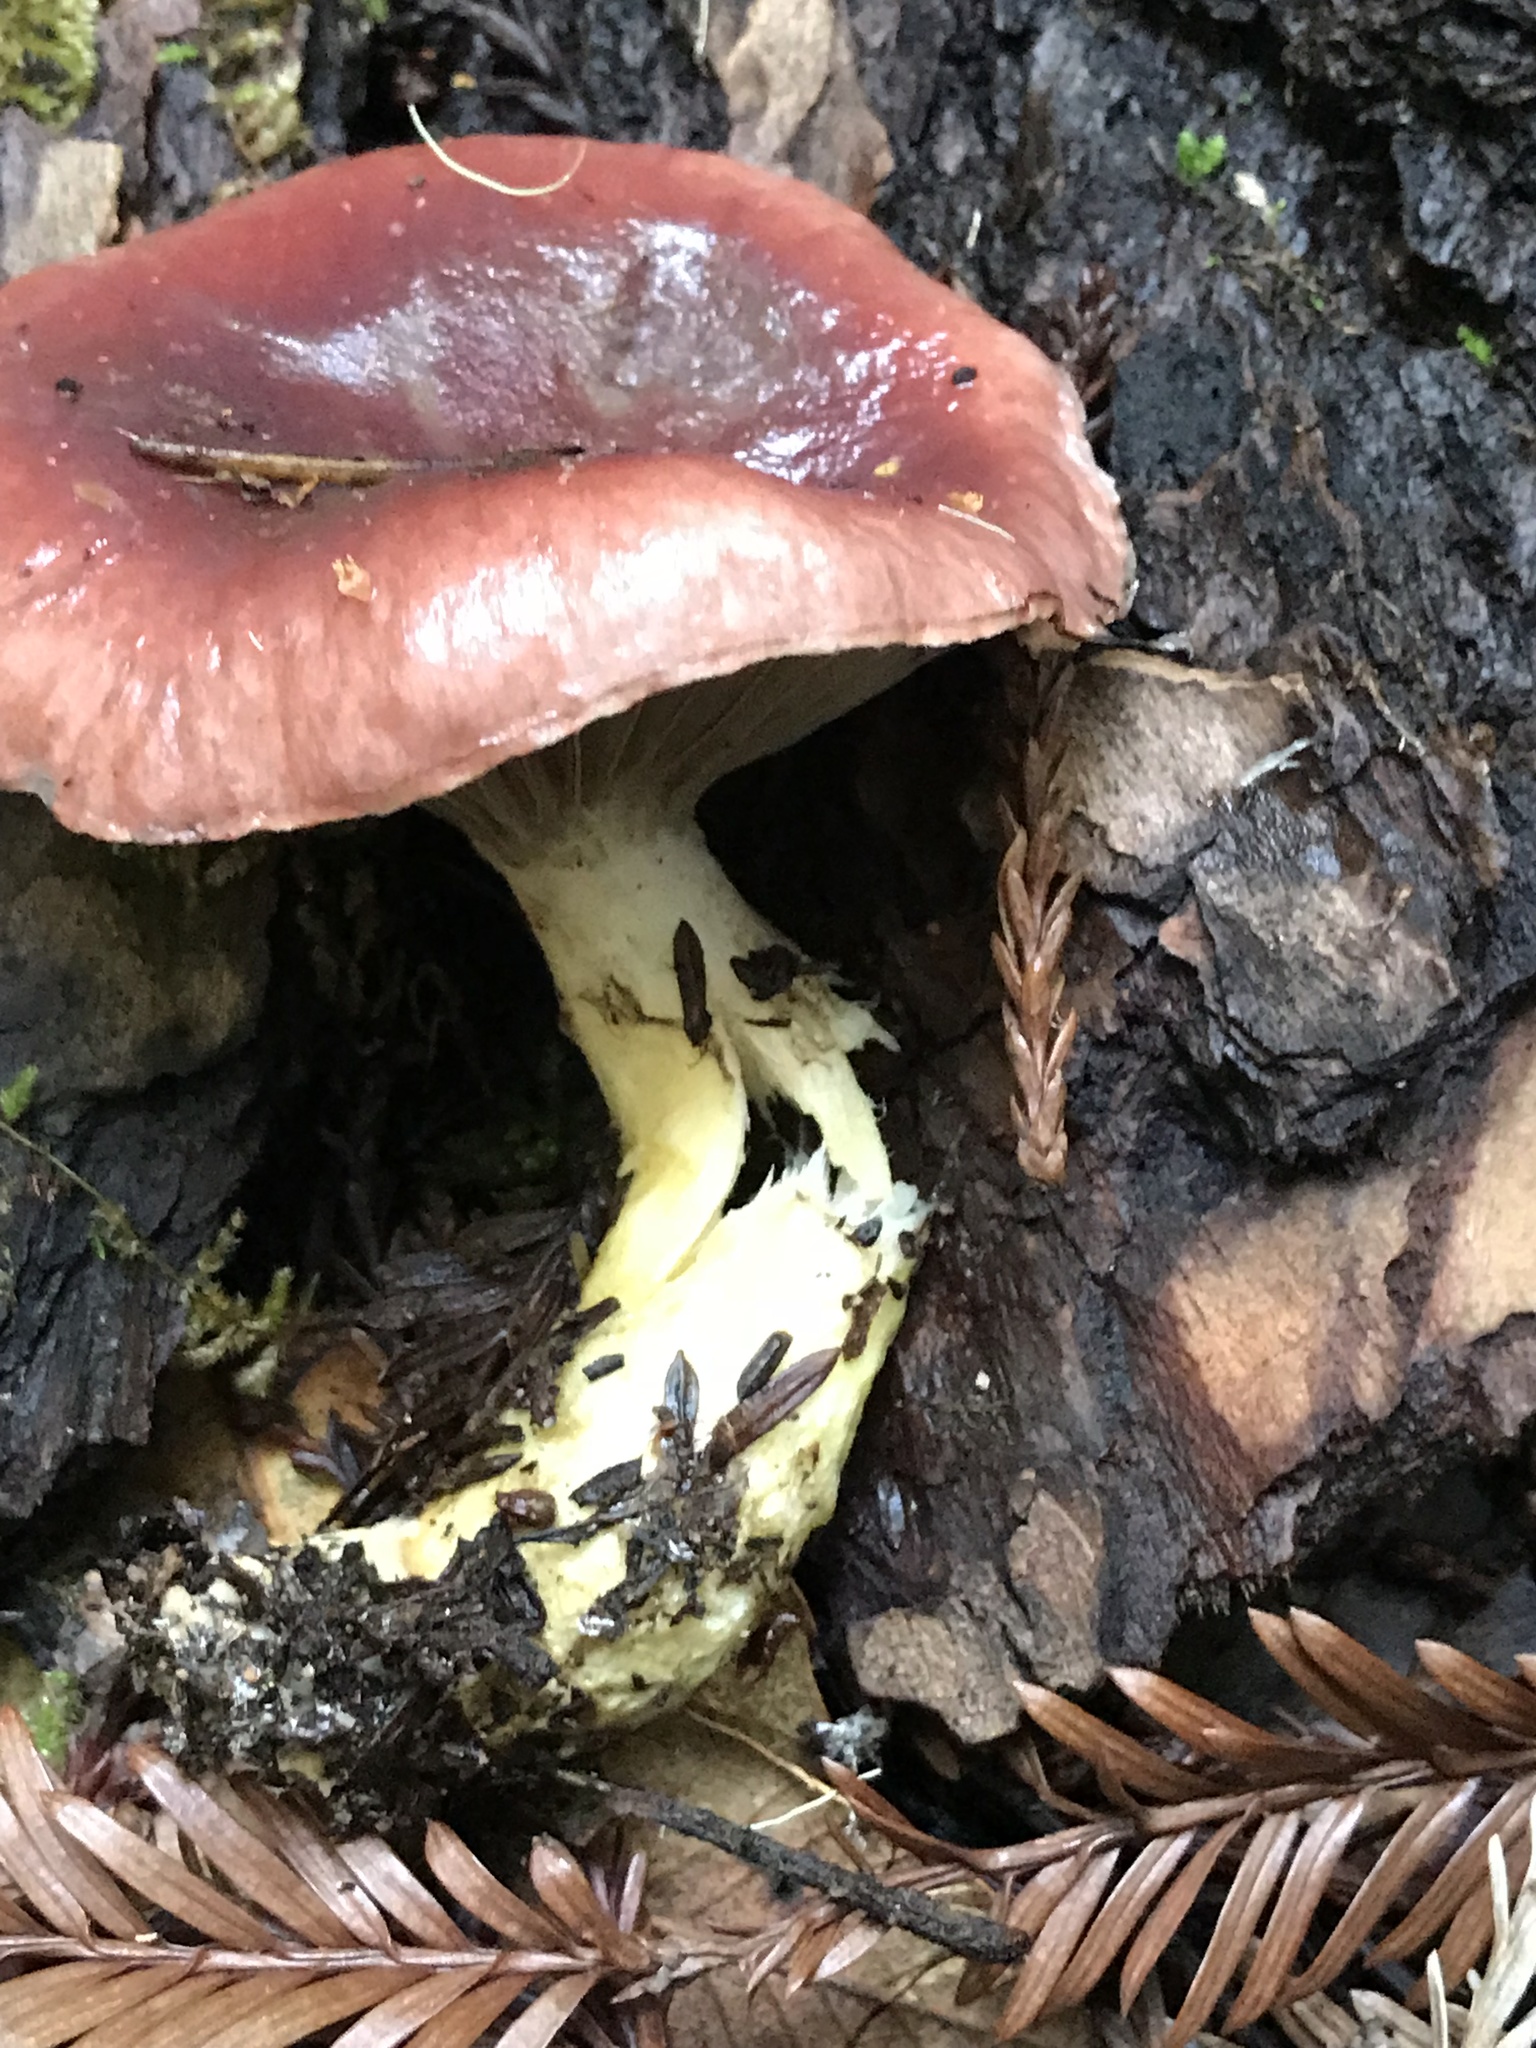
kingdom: Fungi
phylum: Basidiomycota
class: Agaricomycetes
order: Boletales
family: Gomphidiaceae
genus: Gomphidius
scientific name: Gomphidius subroseus
